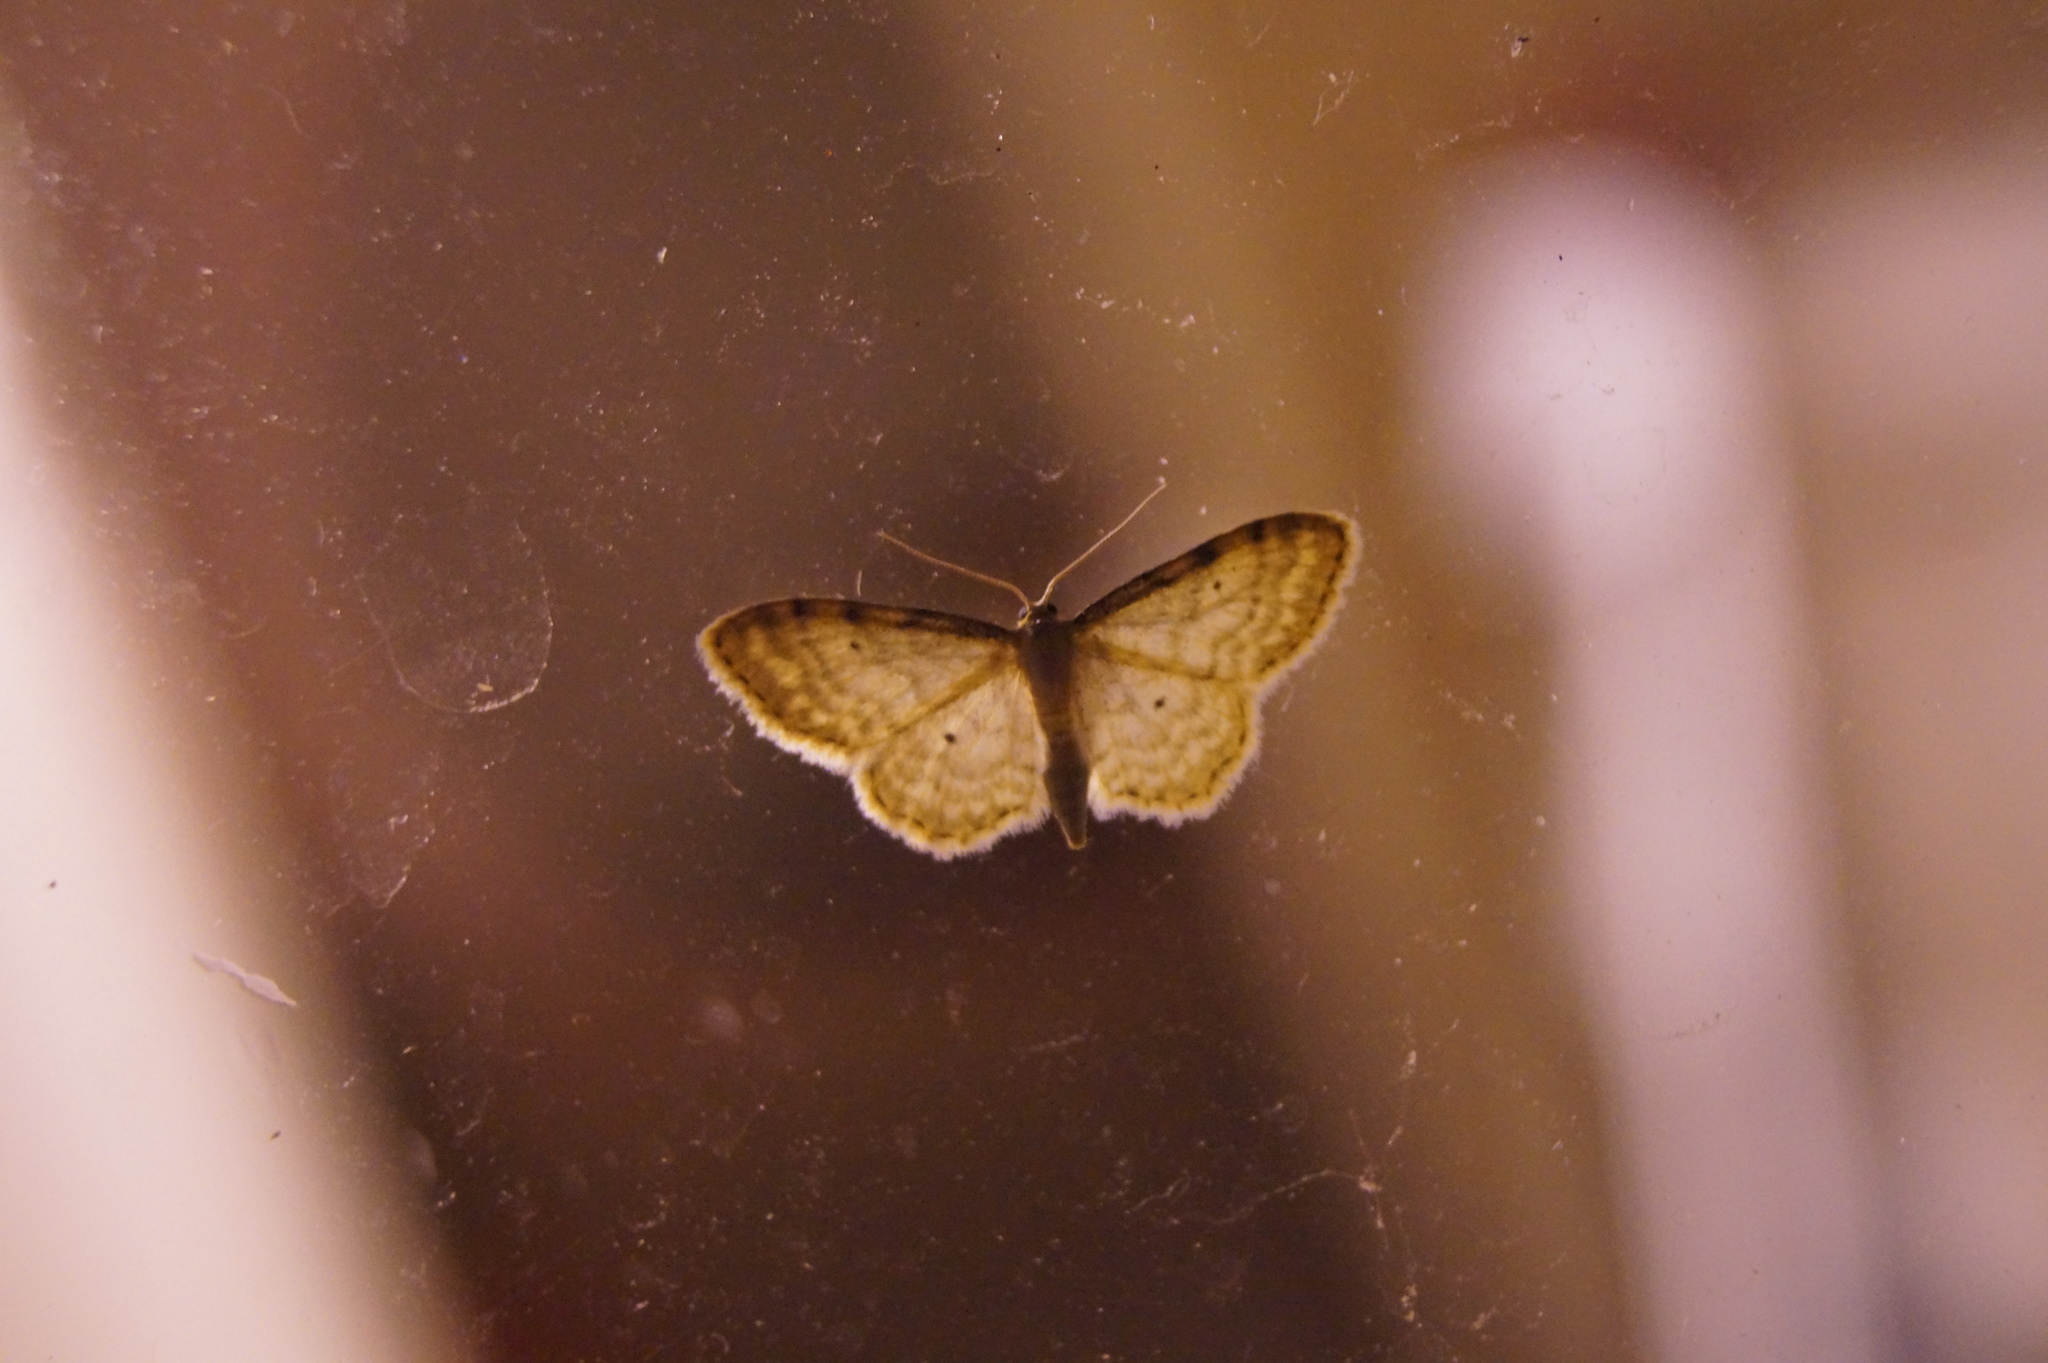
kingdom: Animalia
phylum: Arthropoda
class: Insecta
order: Lepidoptera
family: Geometridae
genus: Idaea
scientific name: Idaea fuscovenosa
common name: Dwarf cream wave
